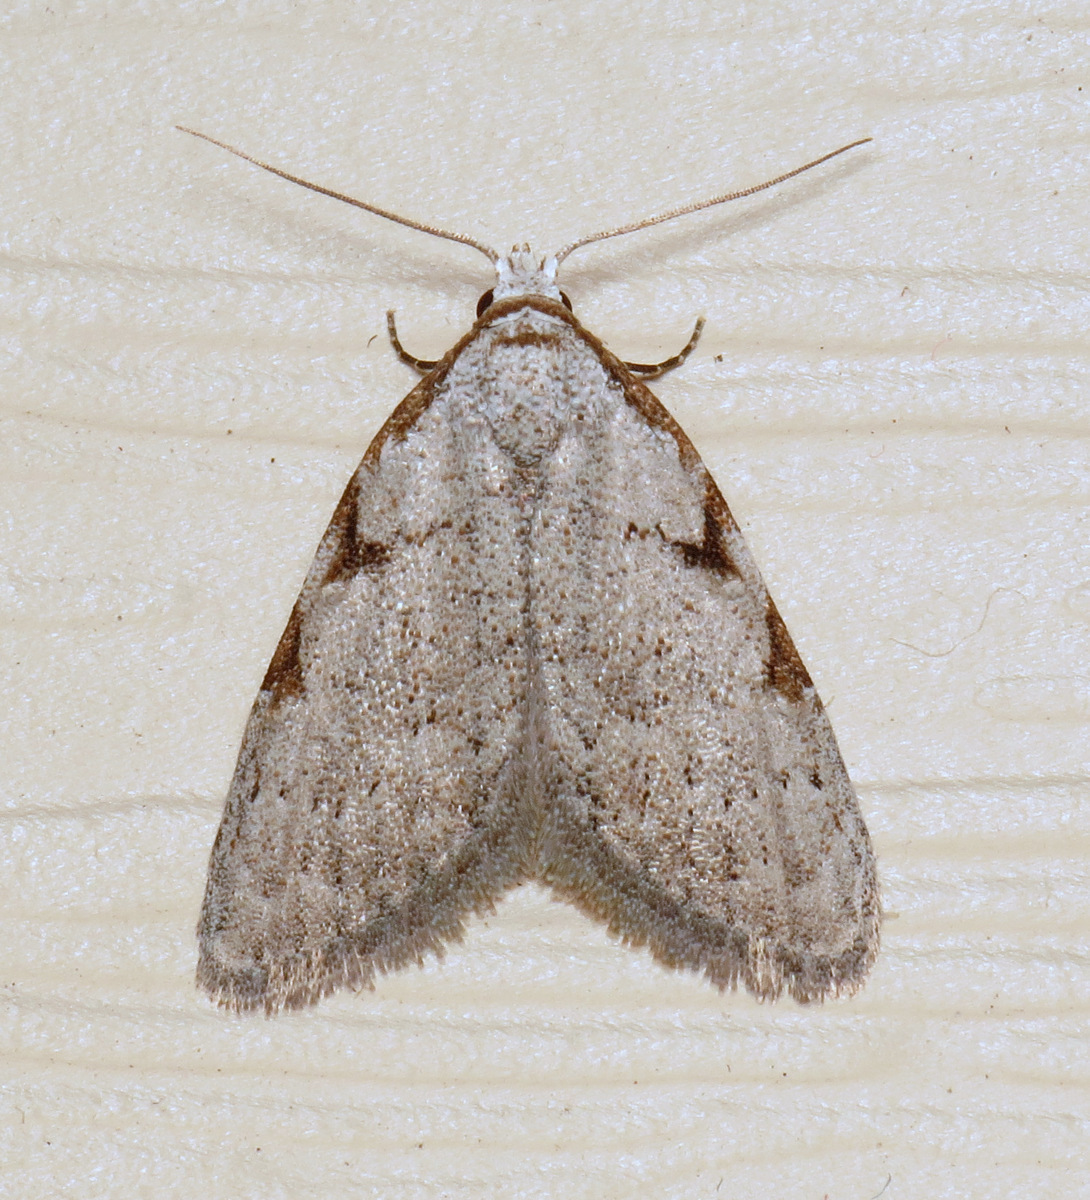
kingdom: Animalia
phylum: Arthropoda
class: Insecta
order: Lepidoptera
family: Nolidae
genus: Nola
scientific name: Nola triquetrana
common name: Three-spotted nola moth
